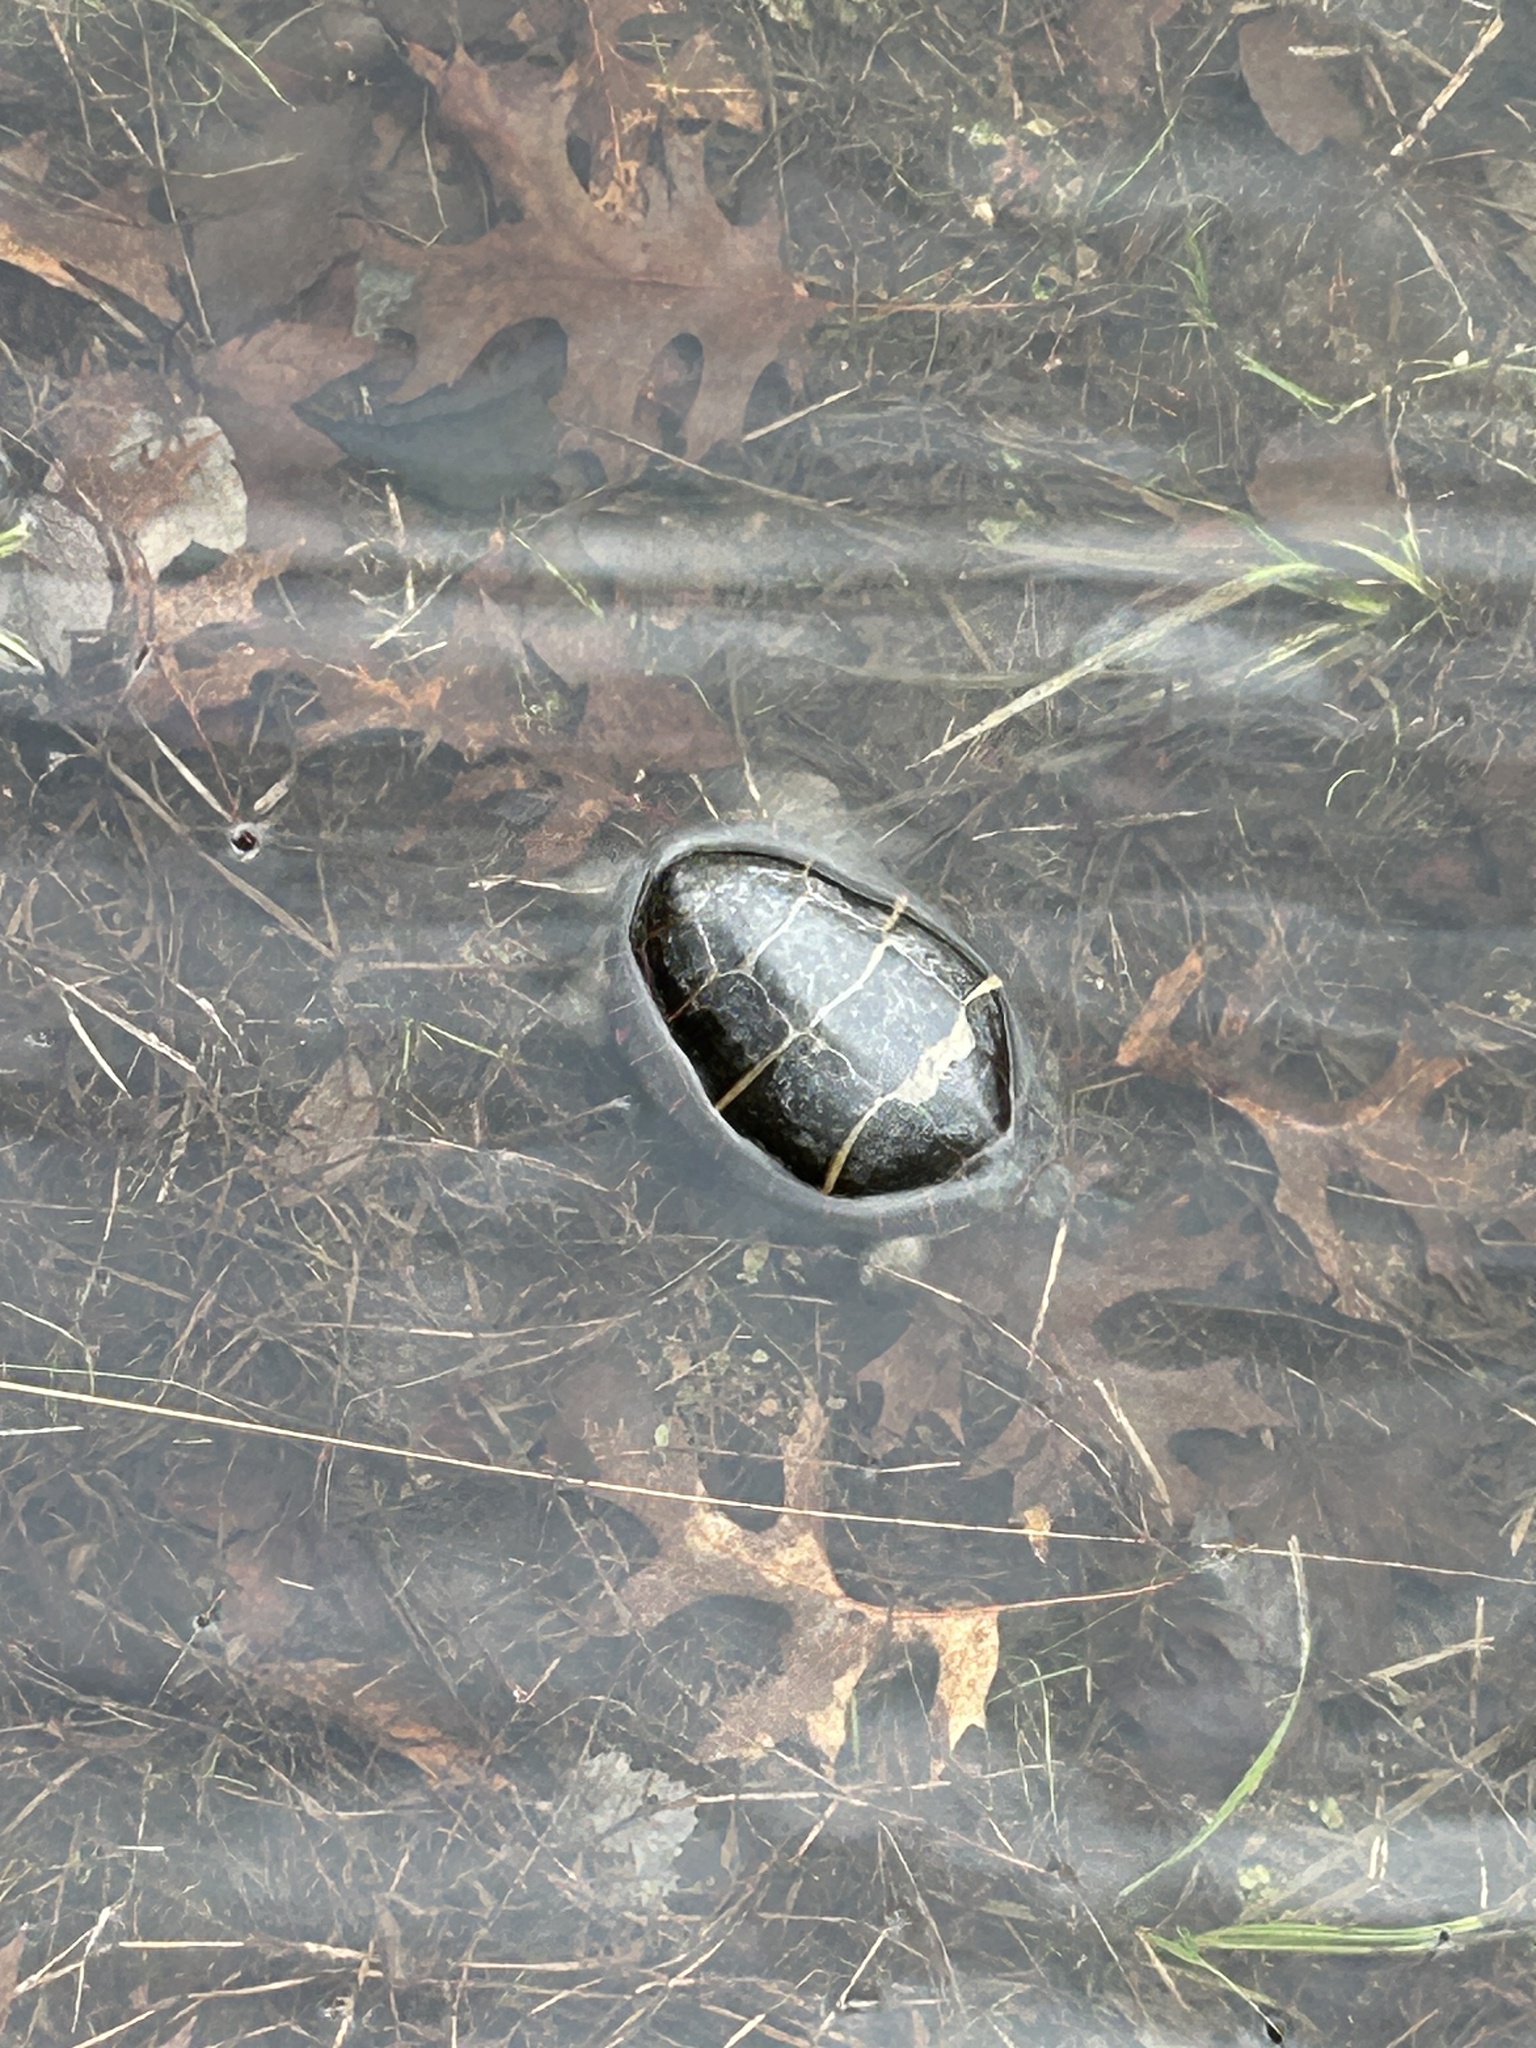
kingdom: Animalia
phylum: Chordata
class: Testudines
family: Emydidae
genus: Chrysemys
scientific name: Chrysemys picta
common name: Painted turtle
